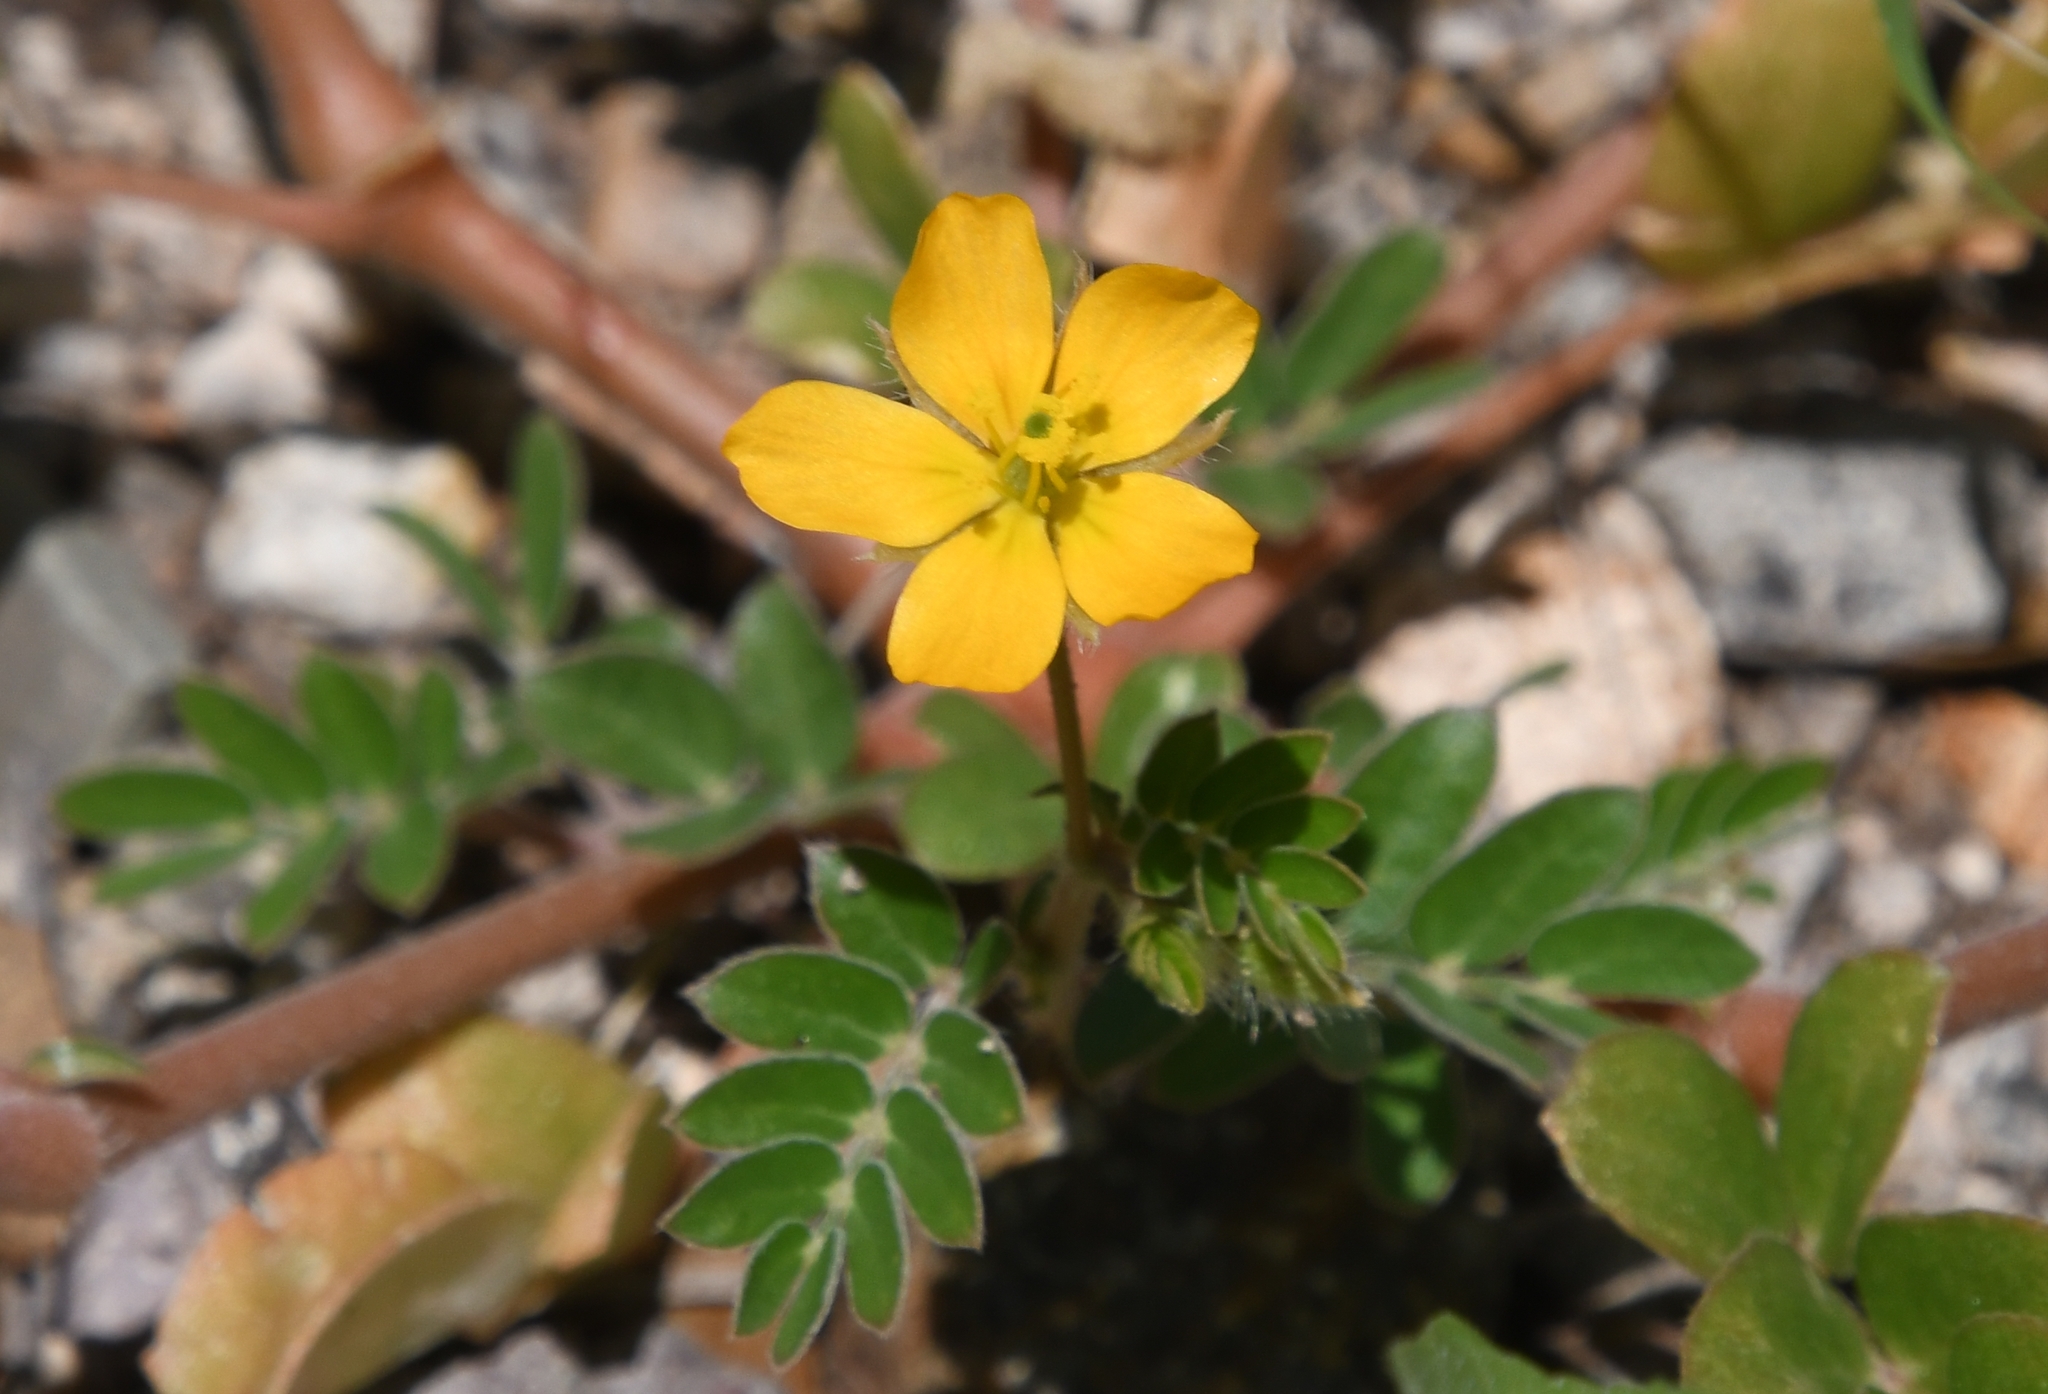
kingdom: Plantae
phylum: Tracheophyta
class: Magnoliopsida
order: Zygophyllales
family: Zygophyllaceae
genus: Kallstroemia
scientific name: Kallstroemia parviflora
